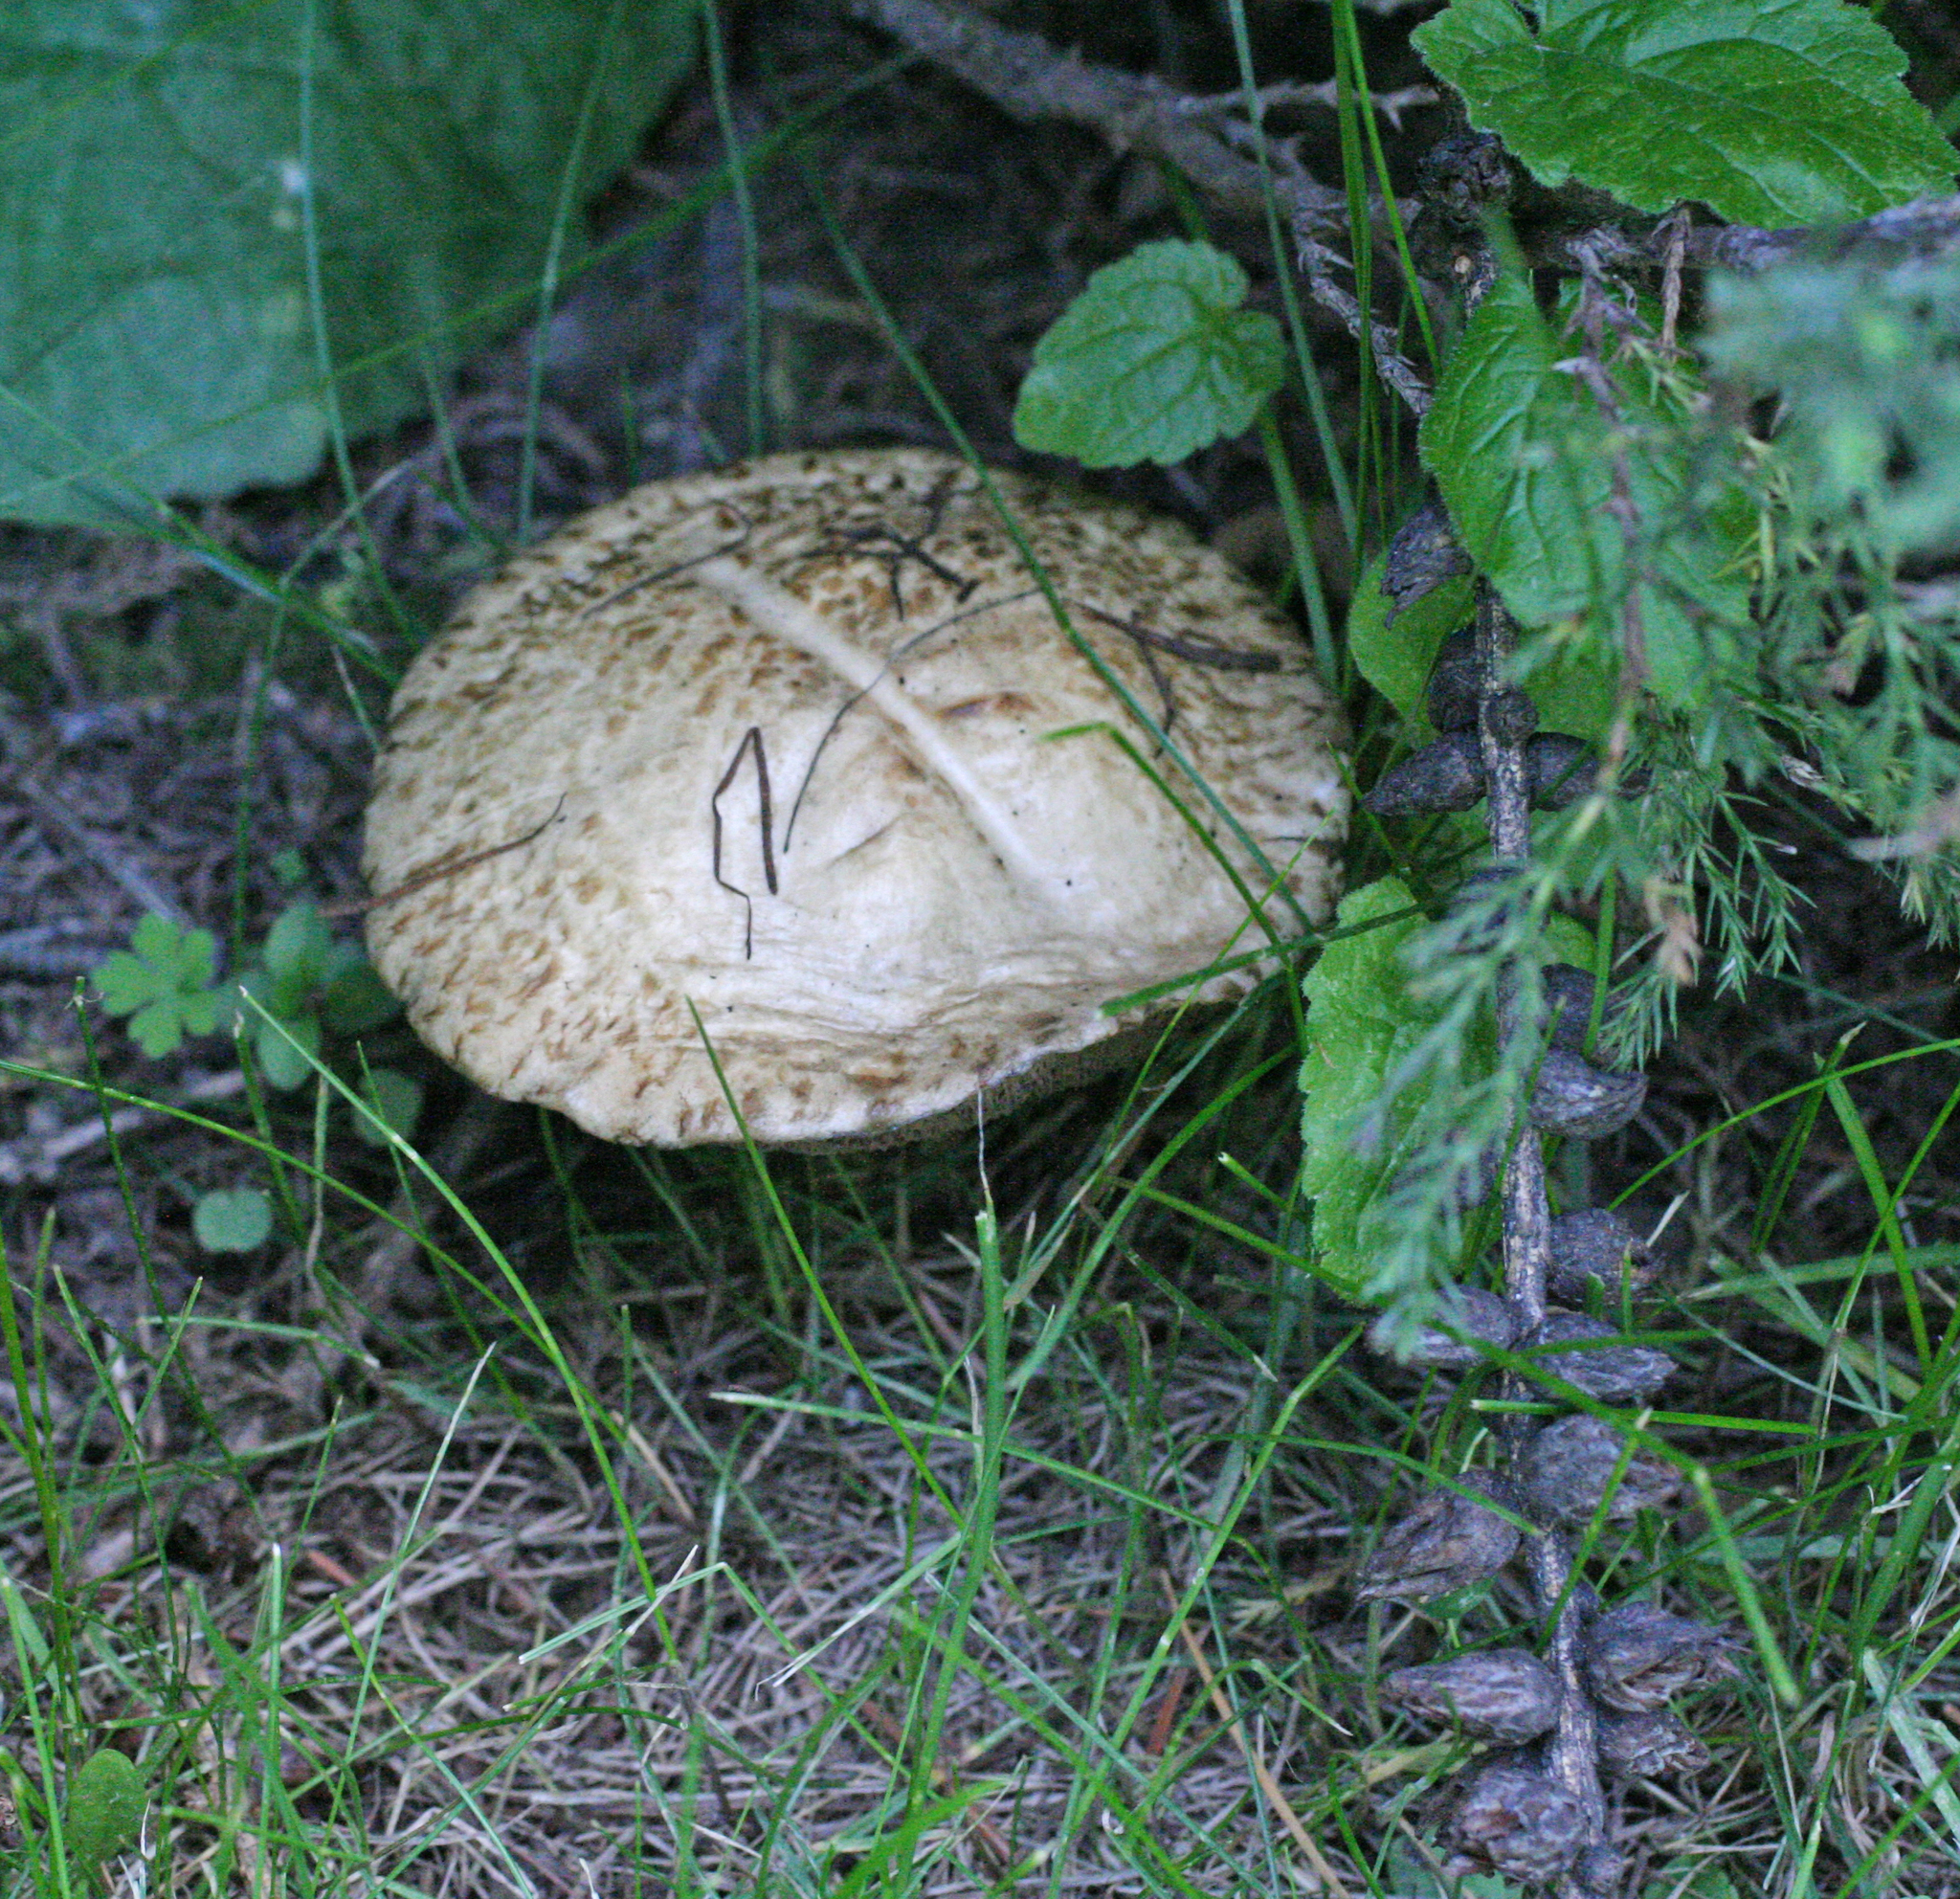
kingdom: Fungi
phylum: Basidiomycota
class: Agaricomycetes
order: Boletales
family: Suillaceae
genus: Suillus
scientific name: Suillus viscidus
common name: Sticky bolete
